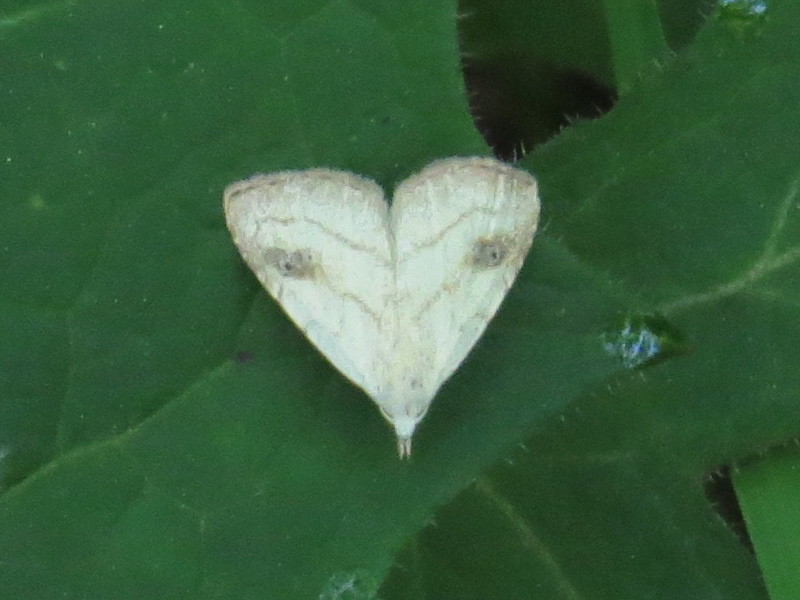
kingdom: Animalia
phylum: Arthropoda
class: Insecta
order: Lepidoptera
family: Erebidae
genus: Rivula
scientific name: Rivula propinqualis
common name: Spotted grass moth
